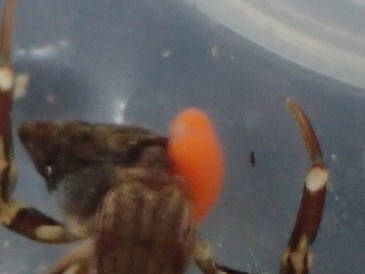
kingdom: Animalia
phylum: Arthropoda
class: Malacostraca
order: Isopoda
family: Cryptoniscidae
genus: Liriopsis
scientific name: Liriopsis pygmaea
